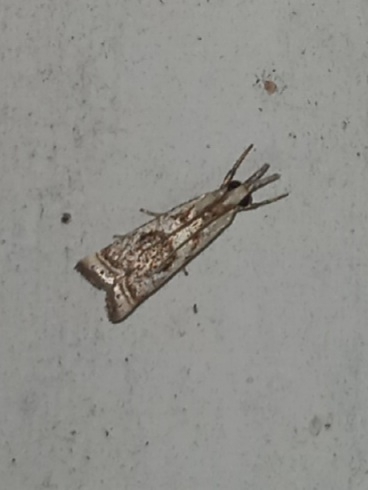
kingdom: Animalia
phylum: Arthropoda
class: Insecta
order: Lepidoptera
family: Crambidae
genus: Microcrambus
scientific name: Microcrambus elegans
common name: Elegant grass-veneer
